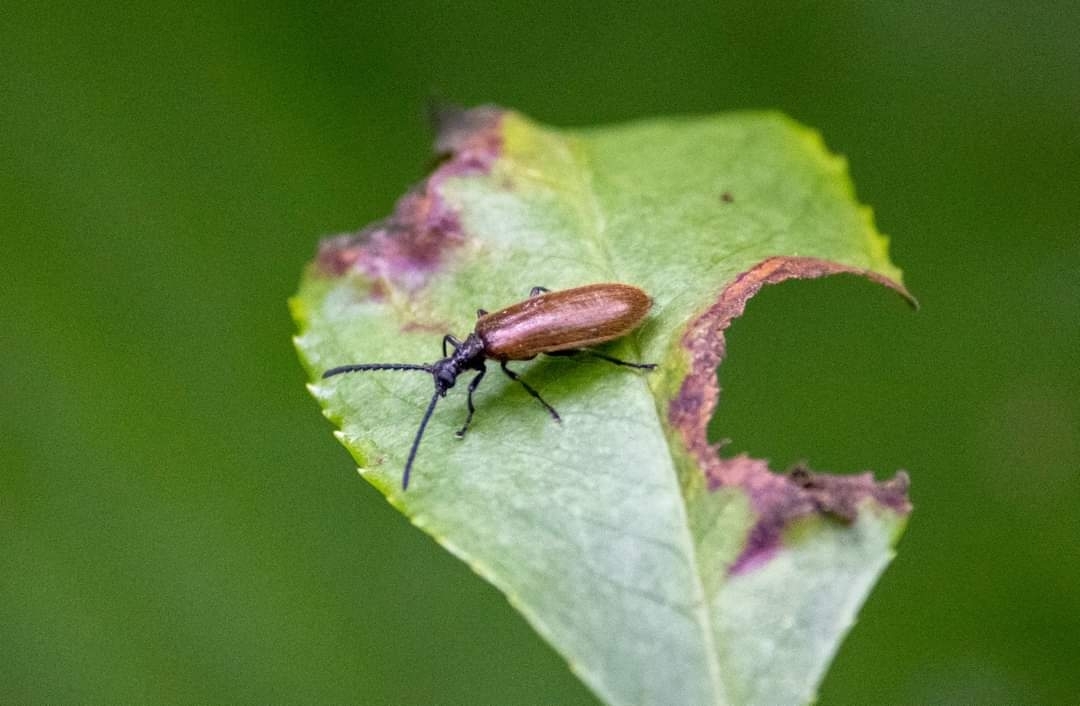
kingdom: Animalia
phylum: Arthropoda
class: Insecta
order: Coleoptera
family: Tenebrionidae
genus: Lagria
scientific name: Lagria hirta
